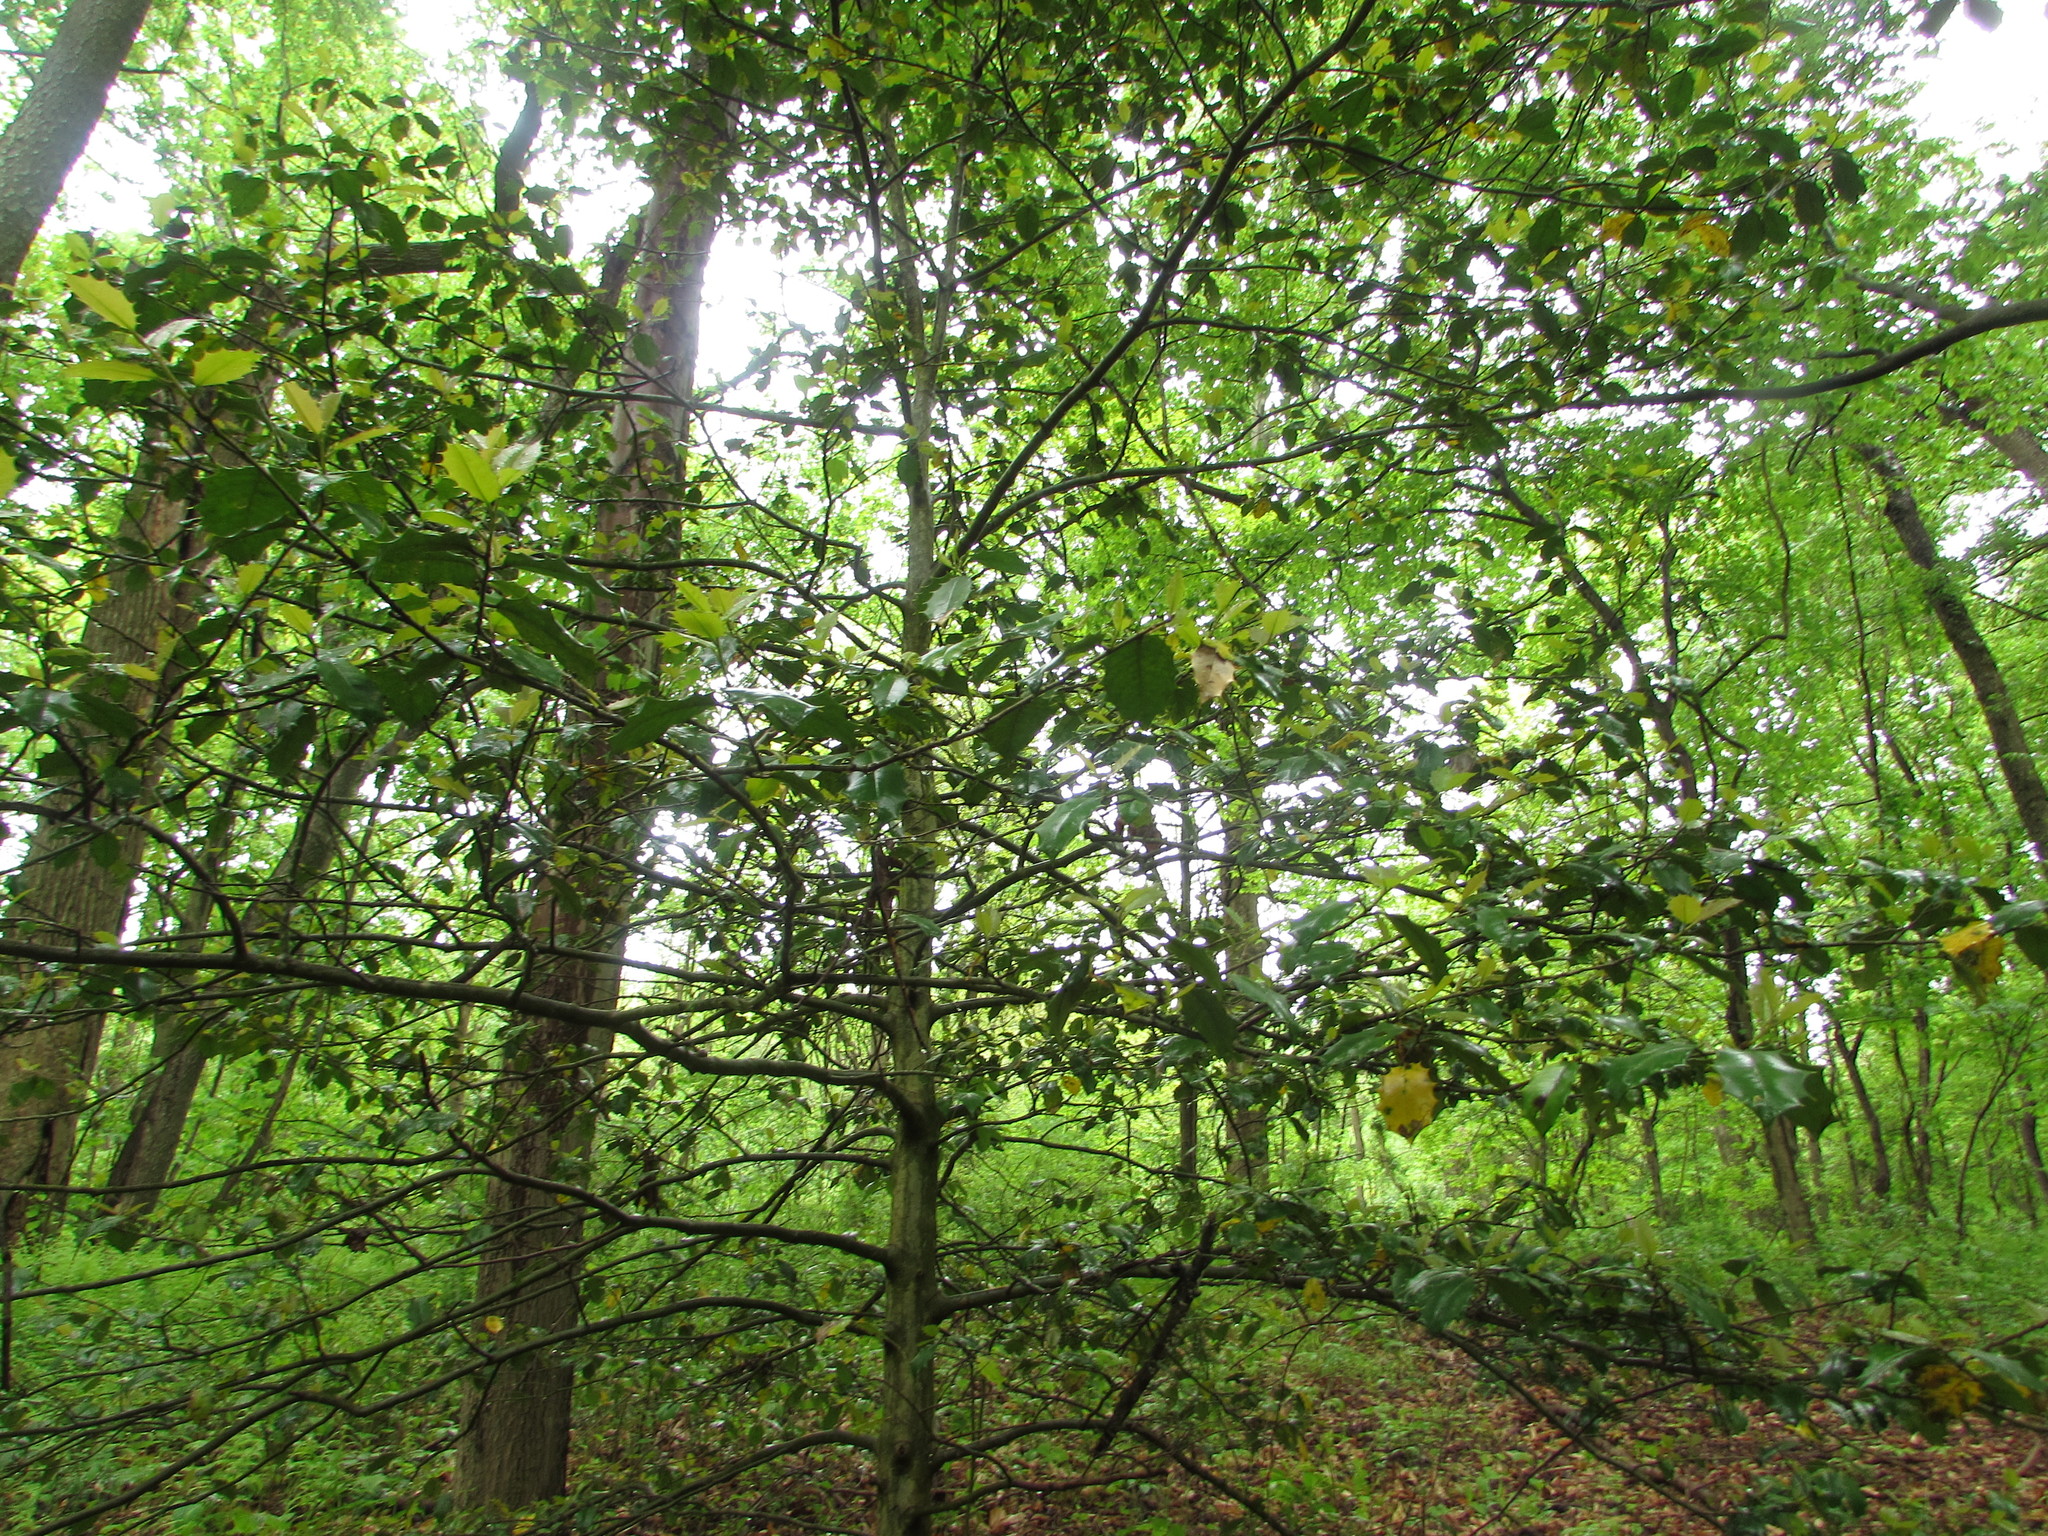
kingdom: Plantae
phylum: Tracheophyta
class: Magnoliopsida
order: Aquifoliales
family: Aquifoliaceae
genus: Ilex
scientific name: Ilex opaca
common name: American holly
